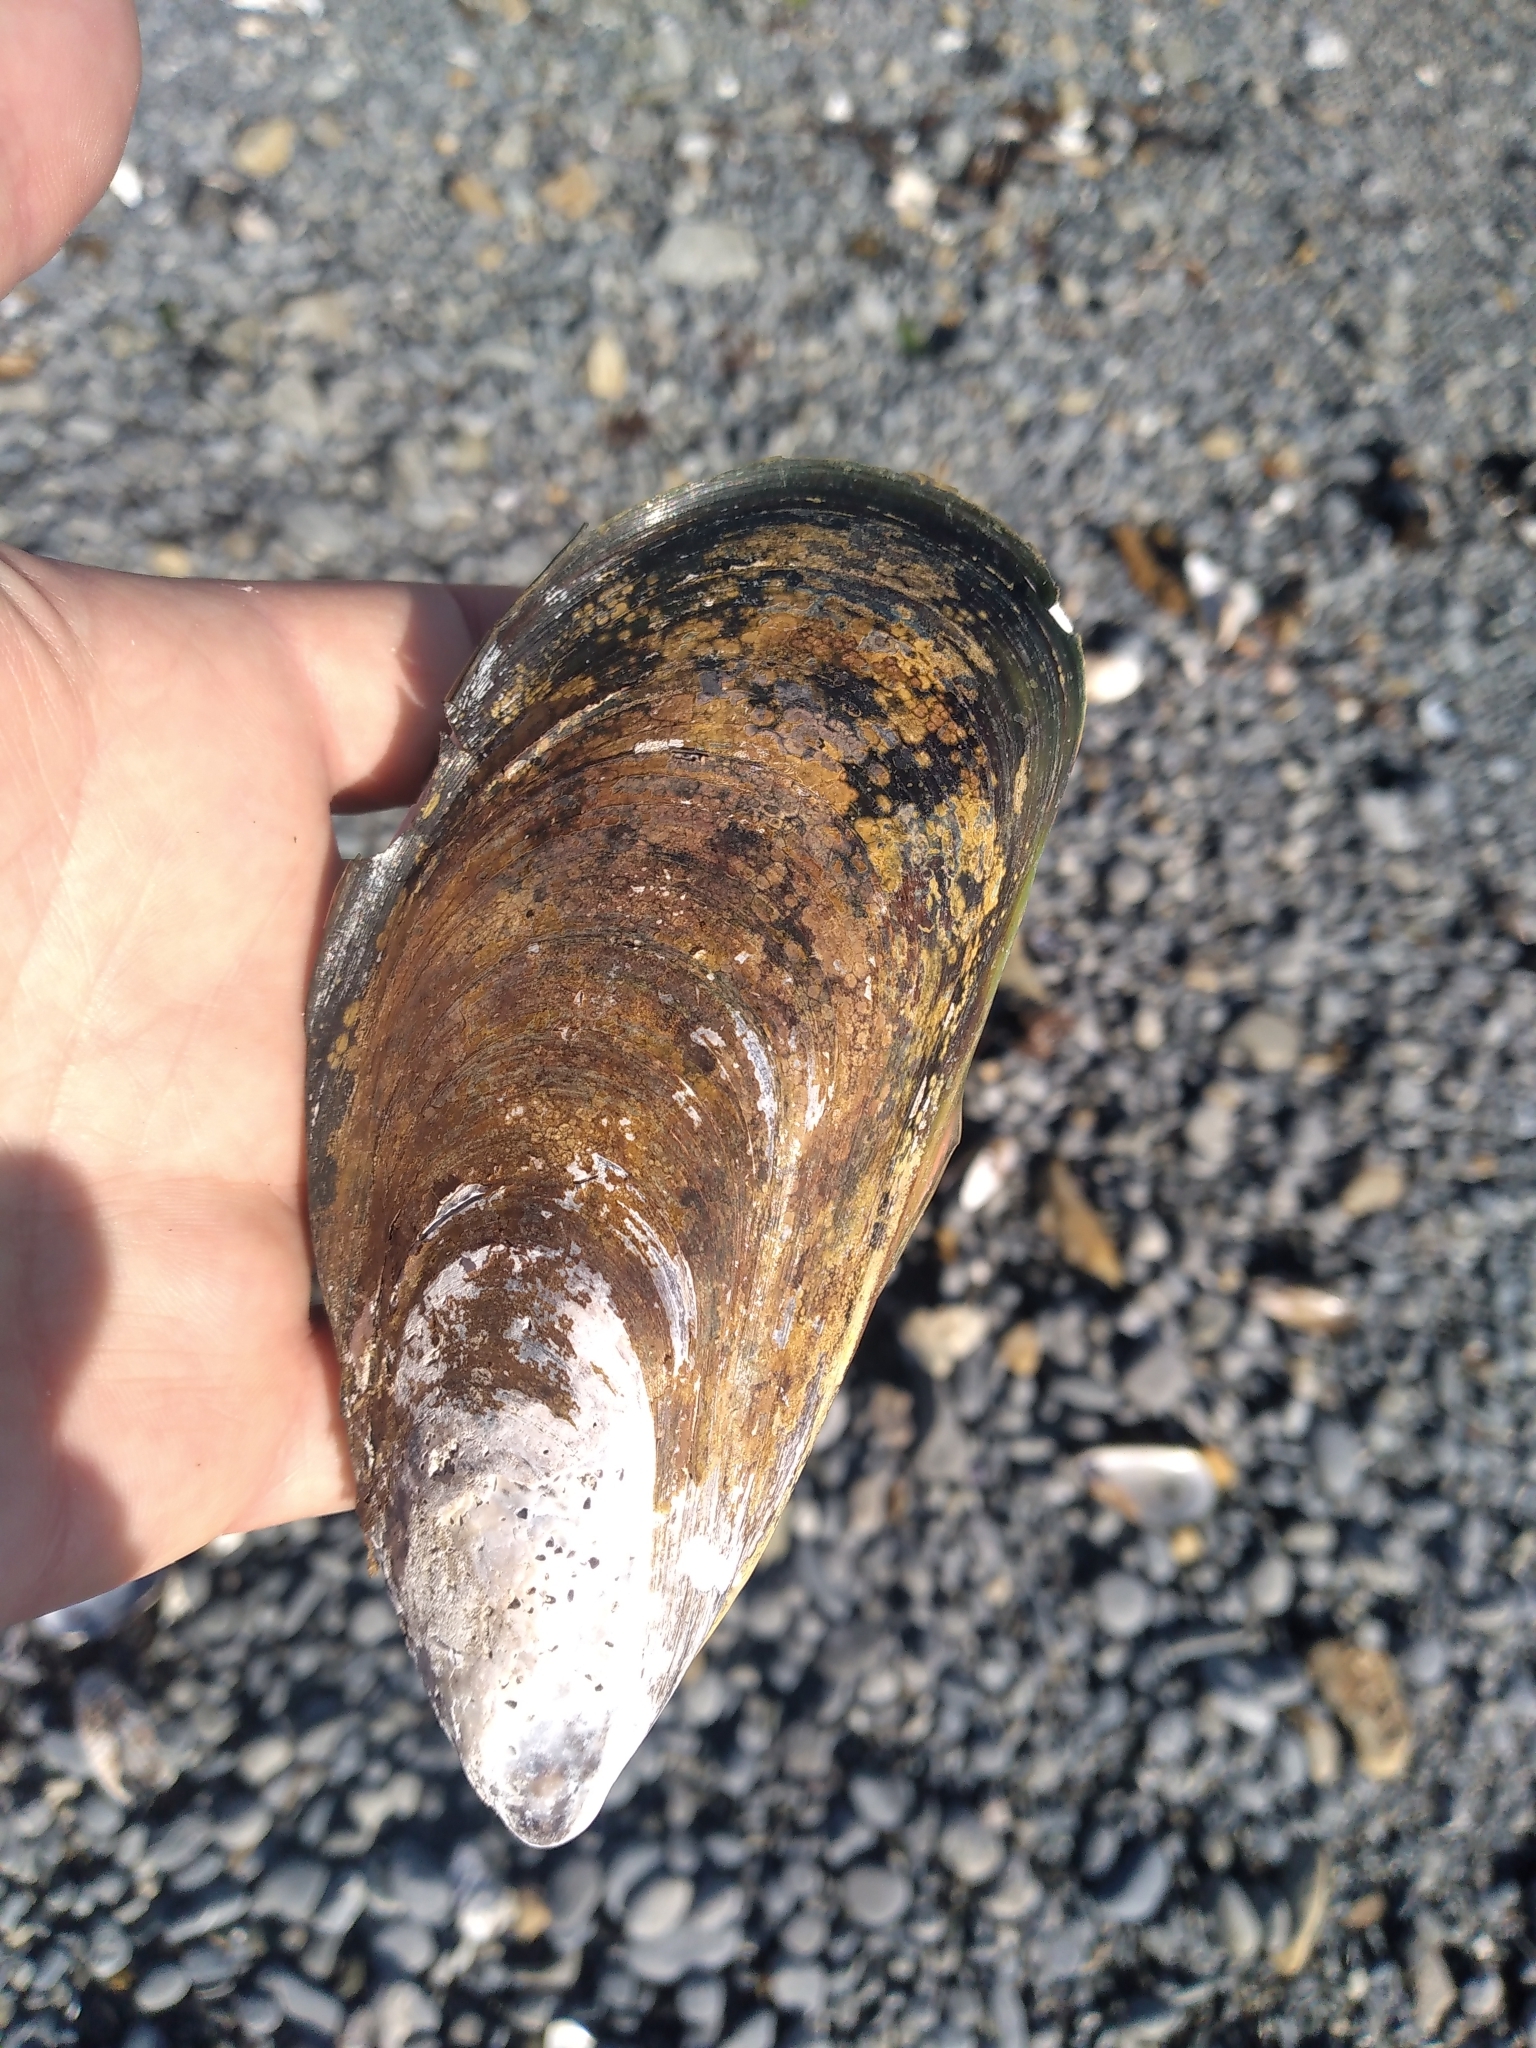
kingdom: Animalia
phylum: Mollusca
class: Bivalvia
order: Mytilida
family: Mytilidae
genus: Perna
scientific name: Perna canaliculus
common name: New zealand greenshelltm
